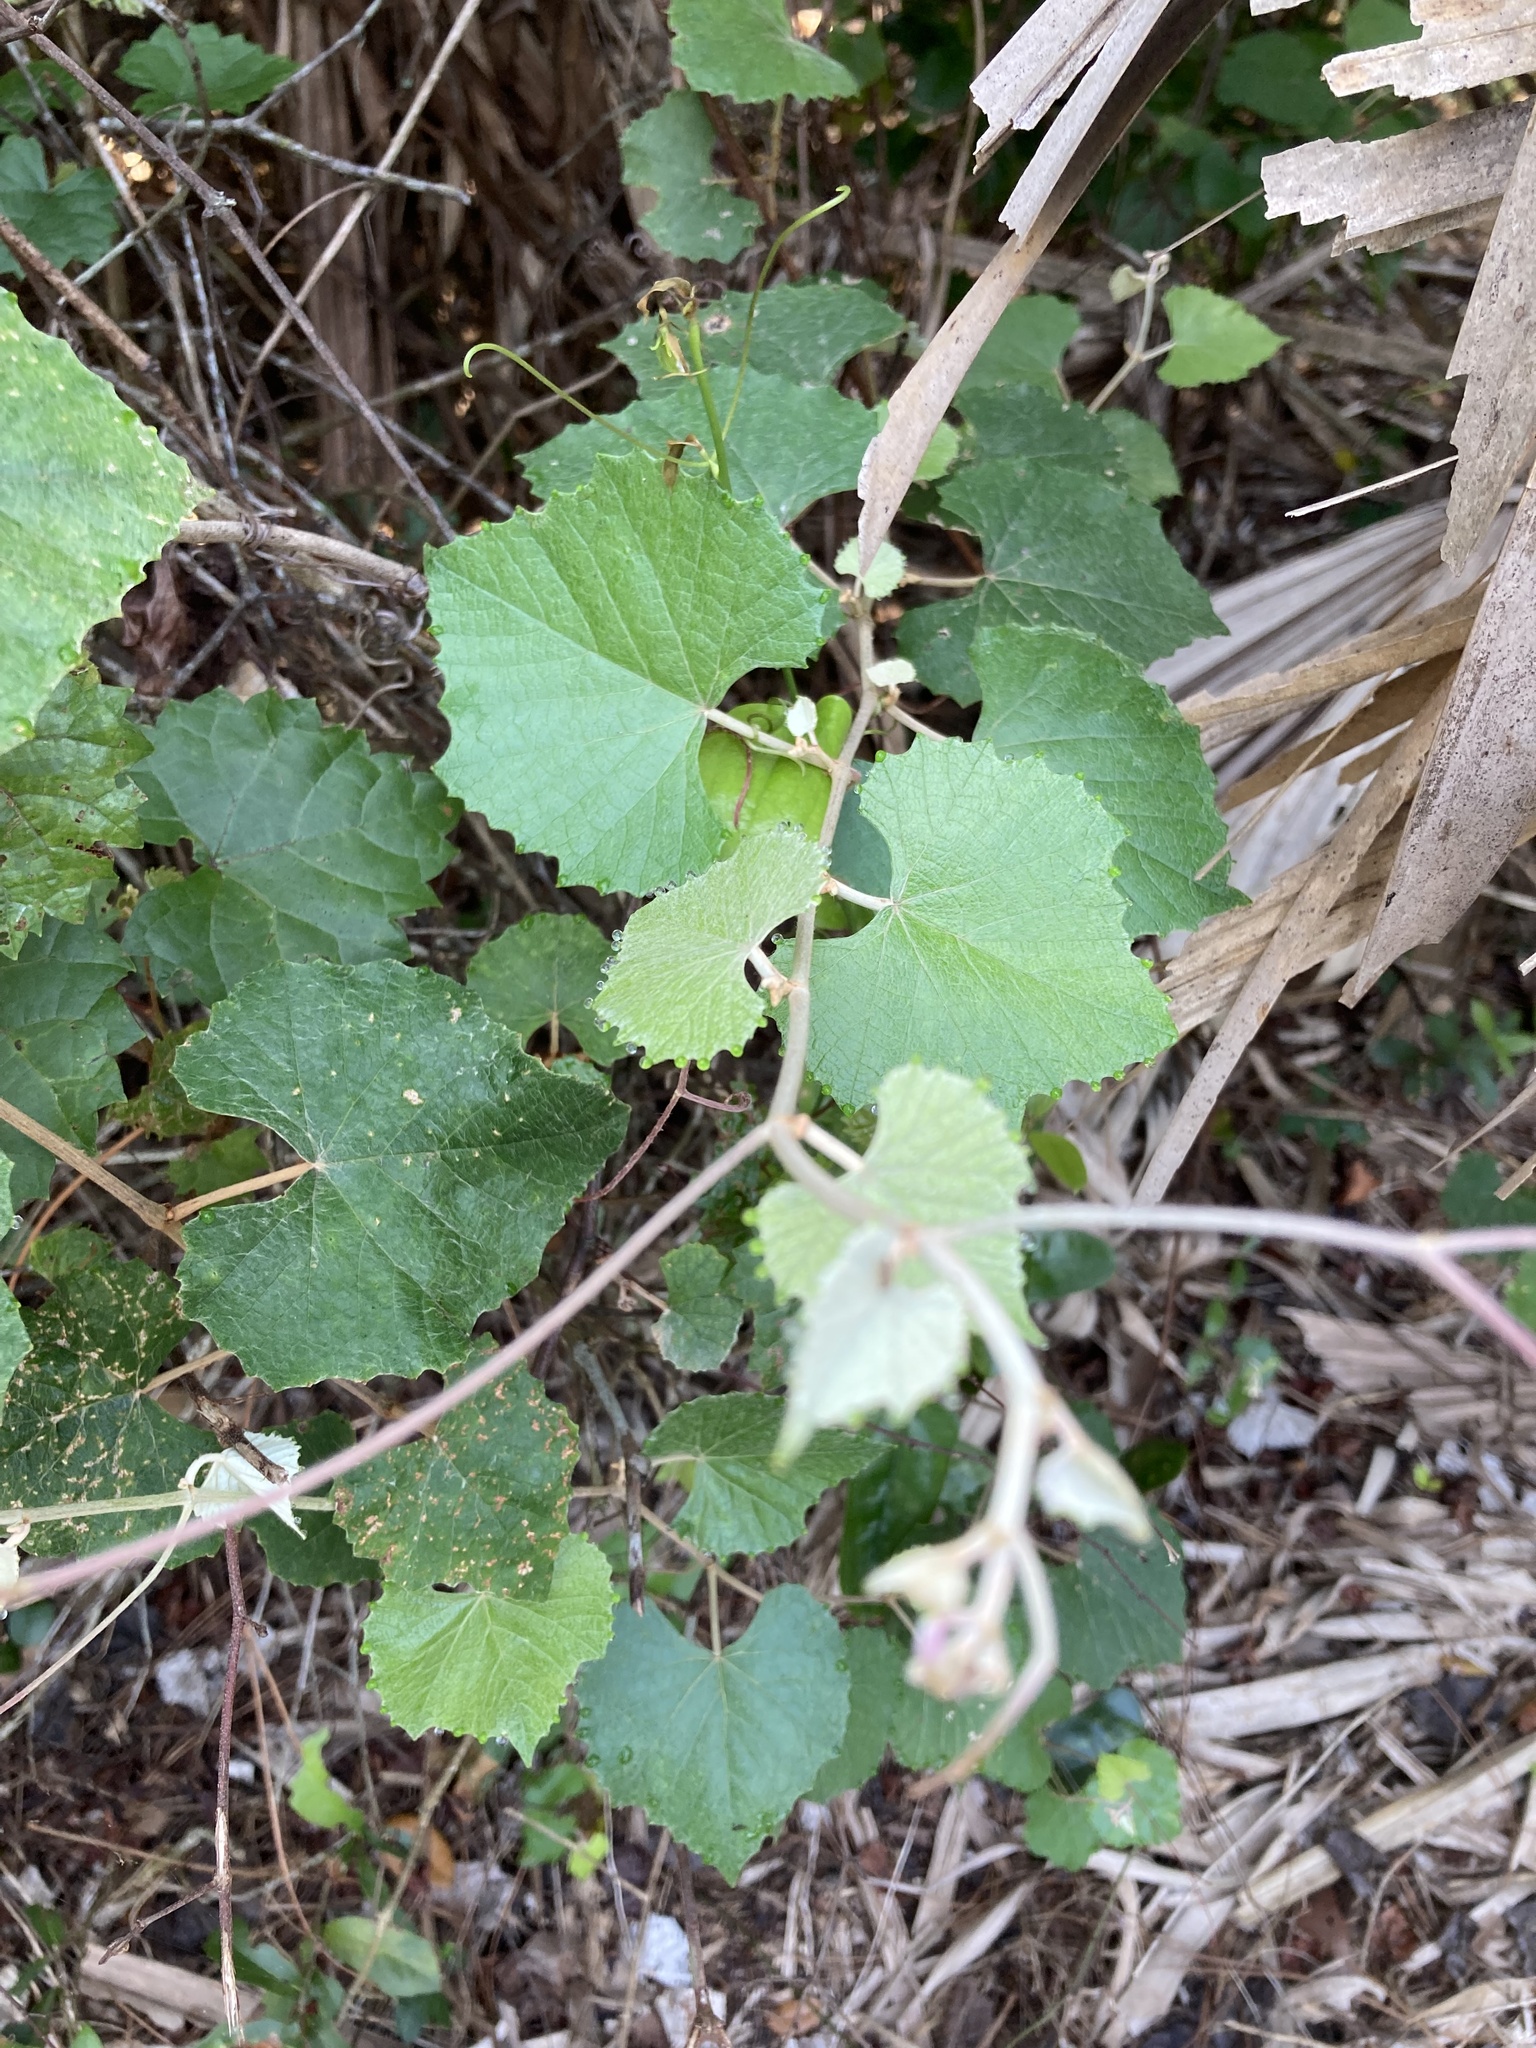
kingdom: Plantae
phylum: Tracheophyta
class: Magnoliopsida
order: Vitales
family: Vitaceae
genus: Vitis
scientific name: Vitis shuttleworthii
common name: Caloosa grape
